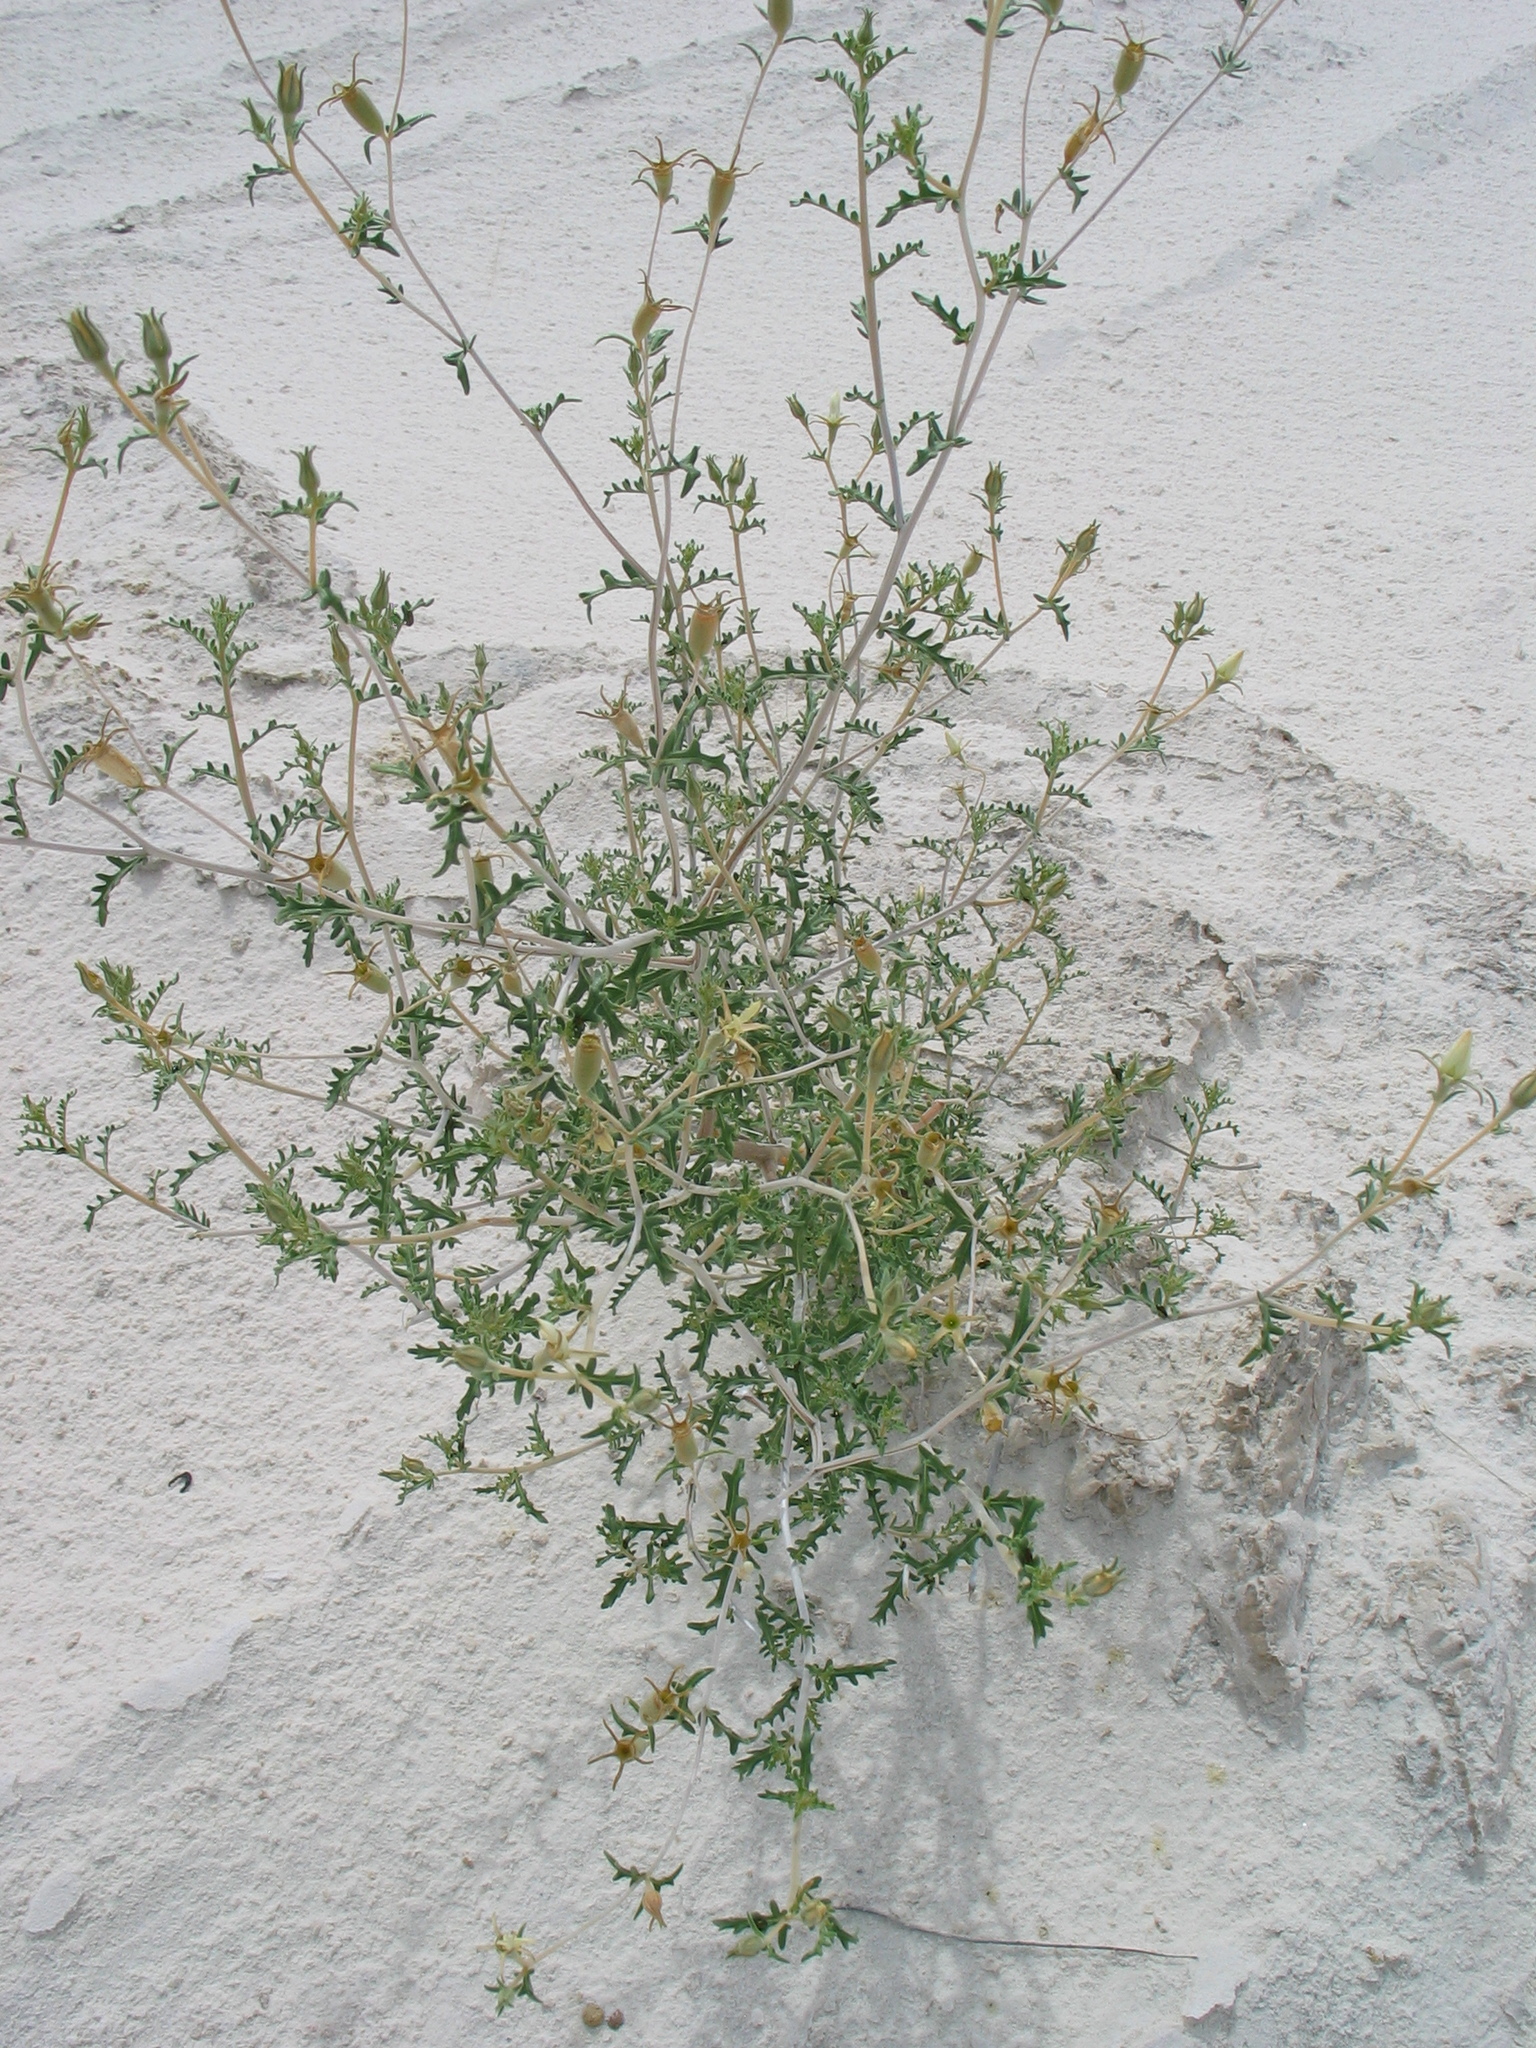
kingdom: Plantae
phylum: Tracheophyta
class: Magnoliopsida
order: Cornales
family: Loasaceae
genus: Mentzelia
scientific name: Mentzelia procera
